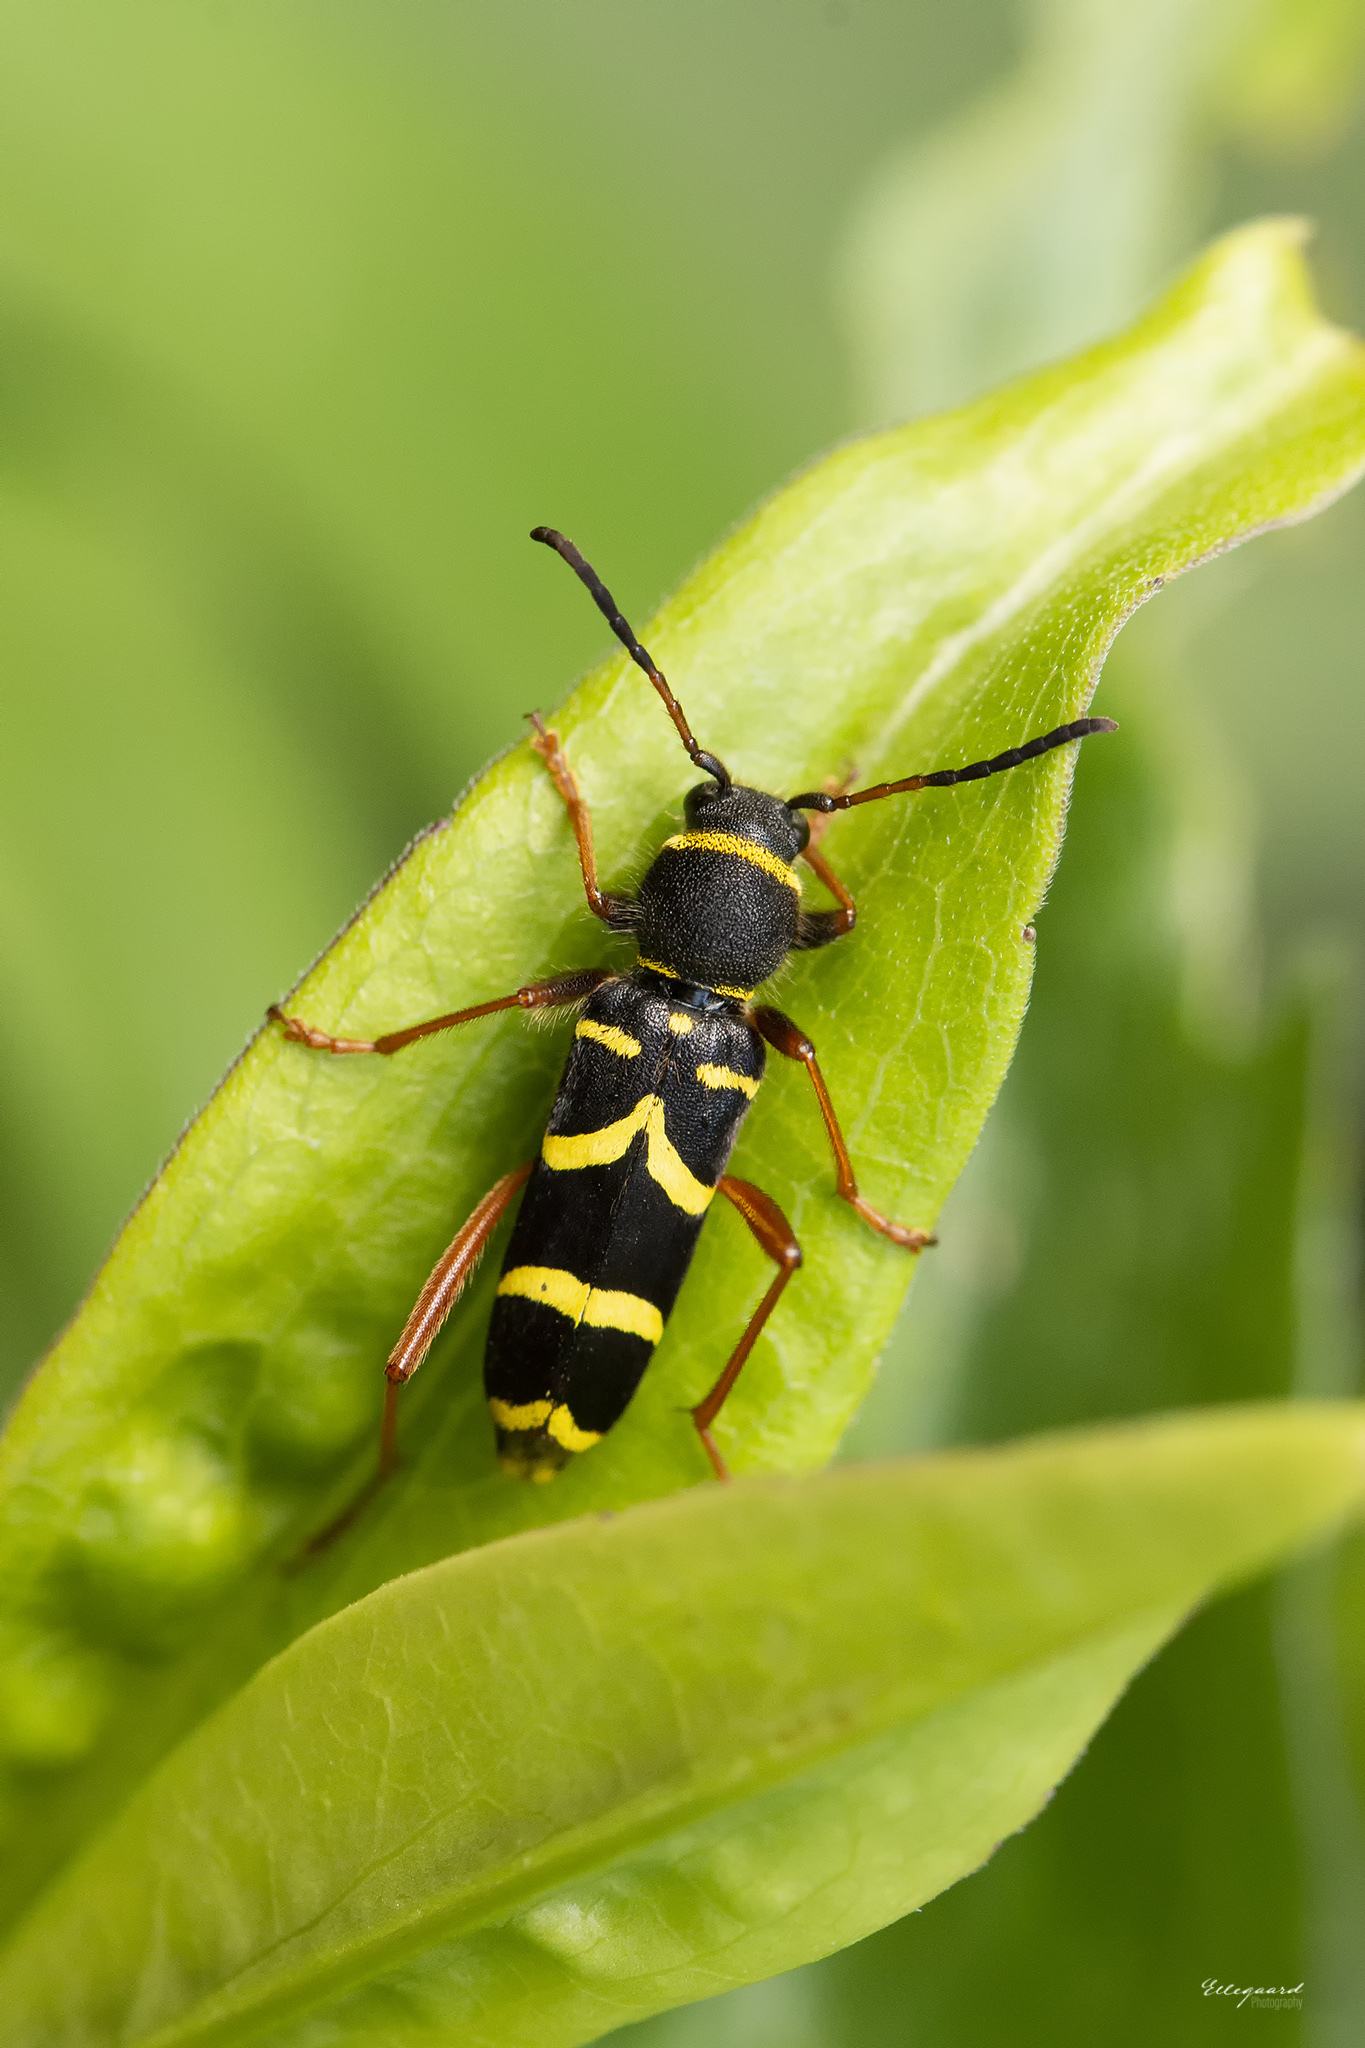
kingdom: Animalia
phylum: Arthropoda
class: Insecta
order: Coleoptera
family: Cerambycidae
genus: Clytus
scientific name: Clytus arietis
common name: Wasp beetle
